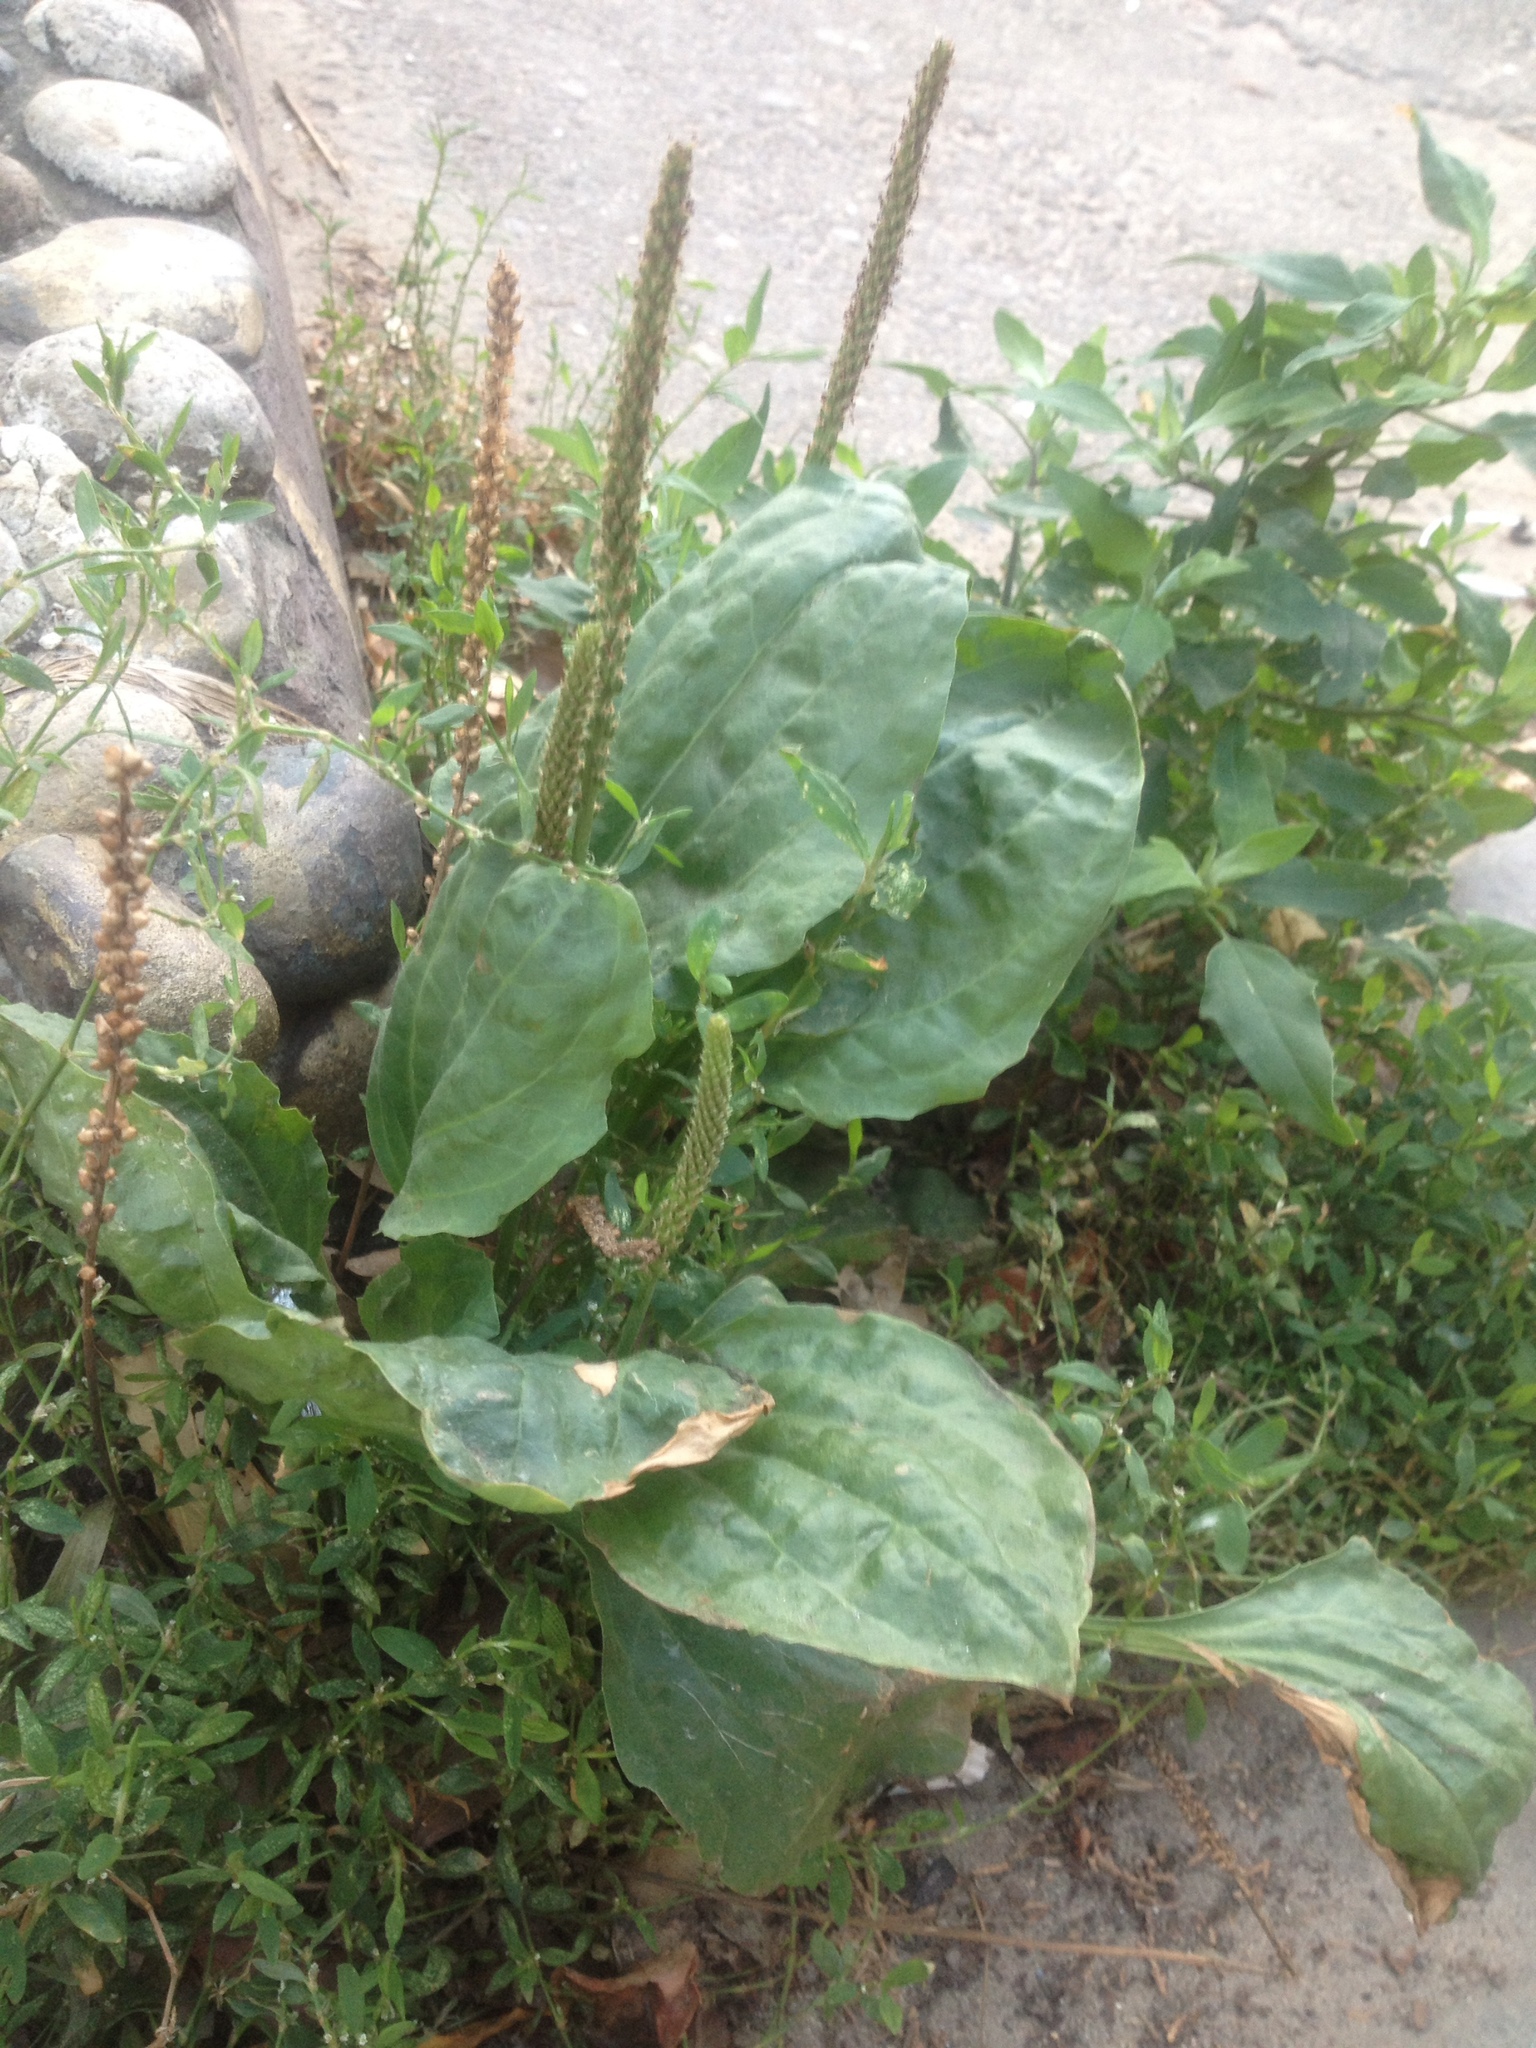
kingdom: Plantae
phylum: Tracheophyta
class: Magnoliopsida
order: Lamiales
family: Plantaginaceae
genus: Plantago
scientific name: Plantago major
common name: Common plantain
